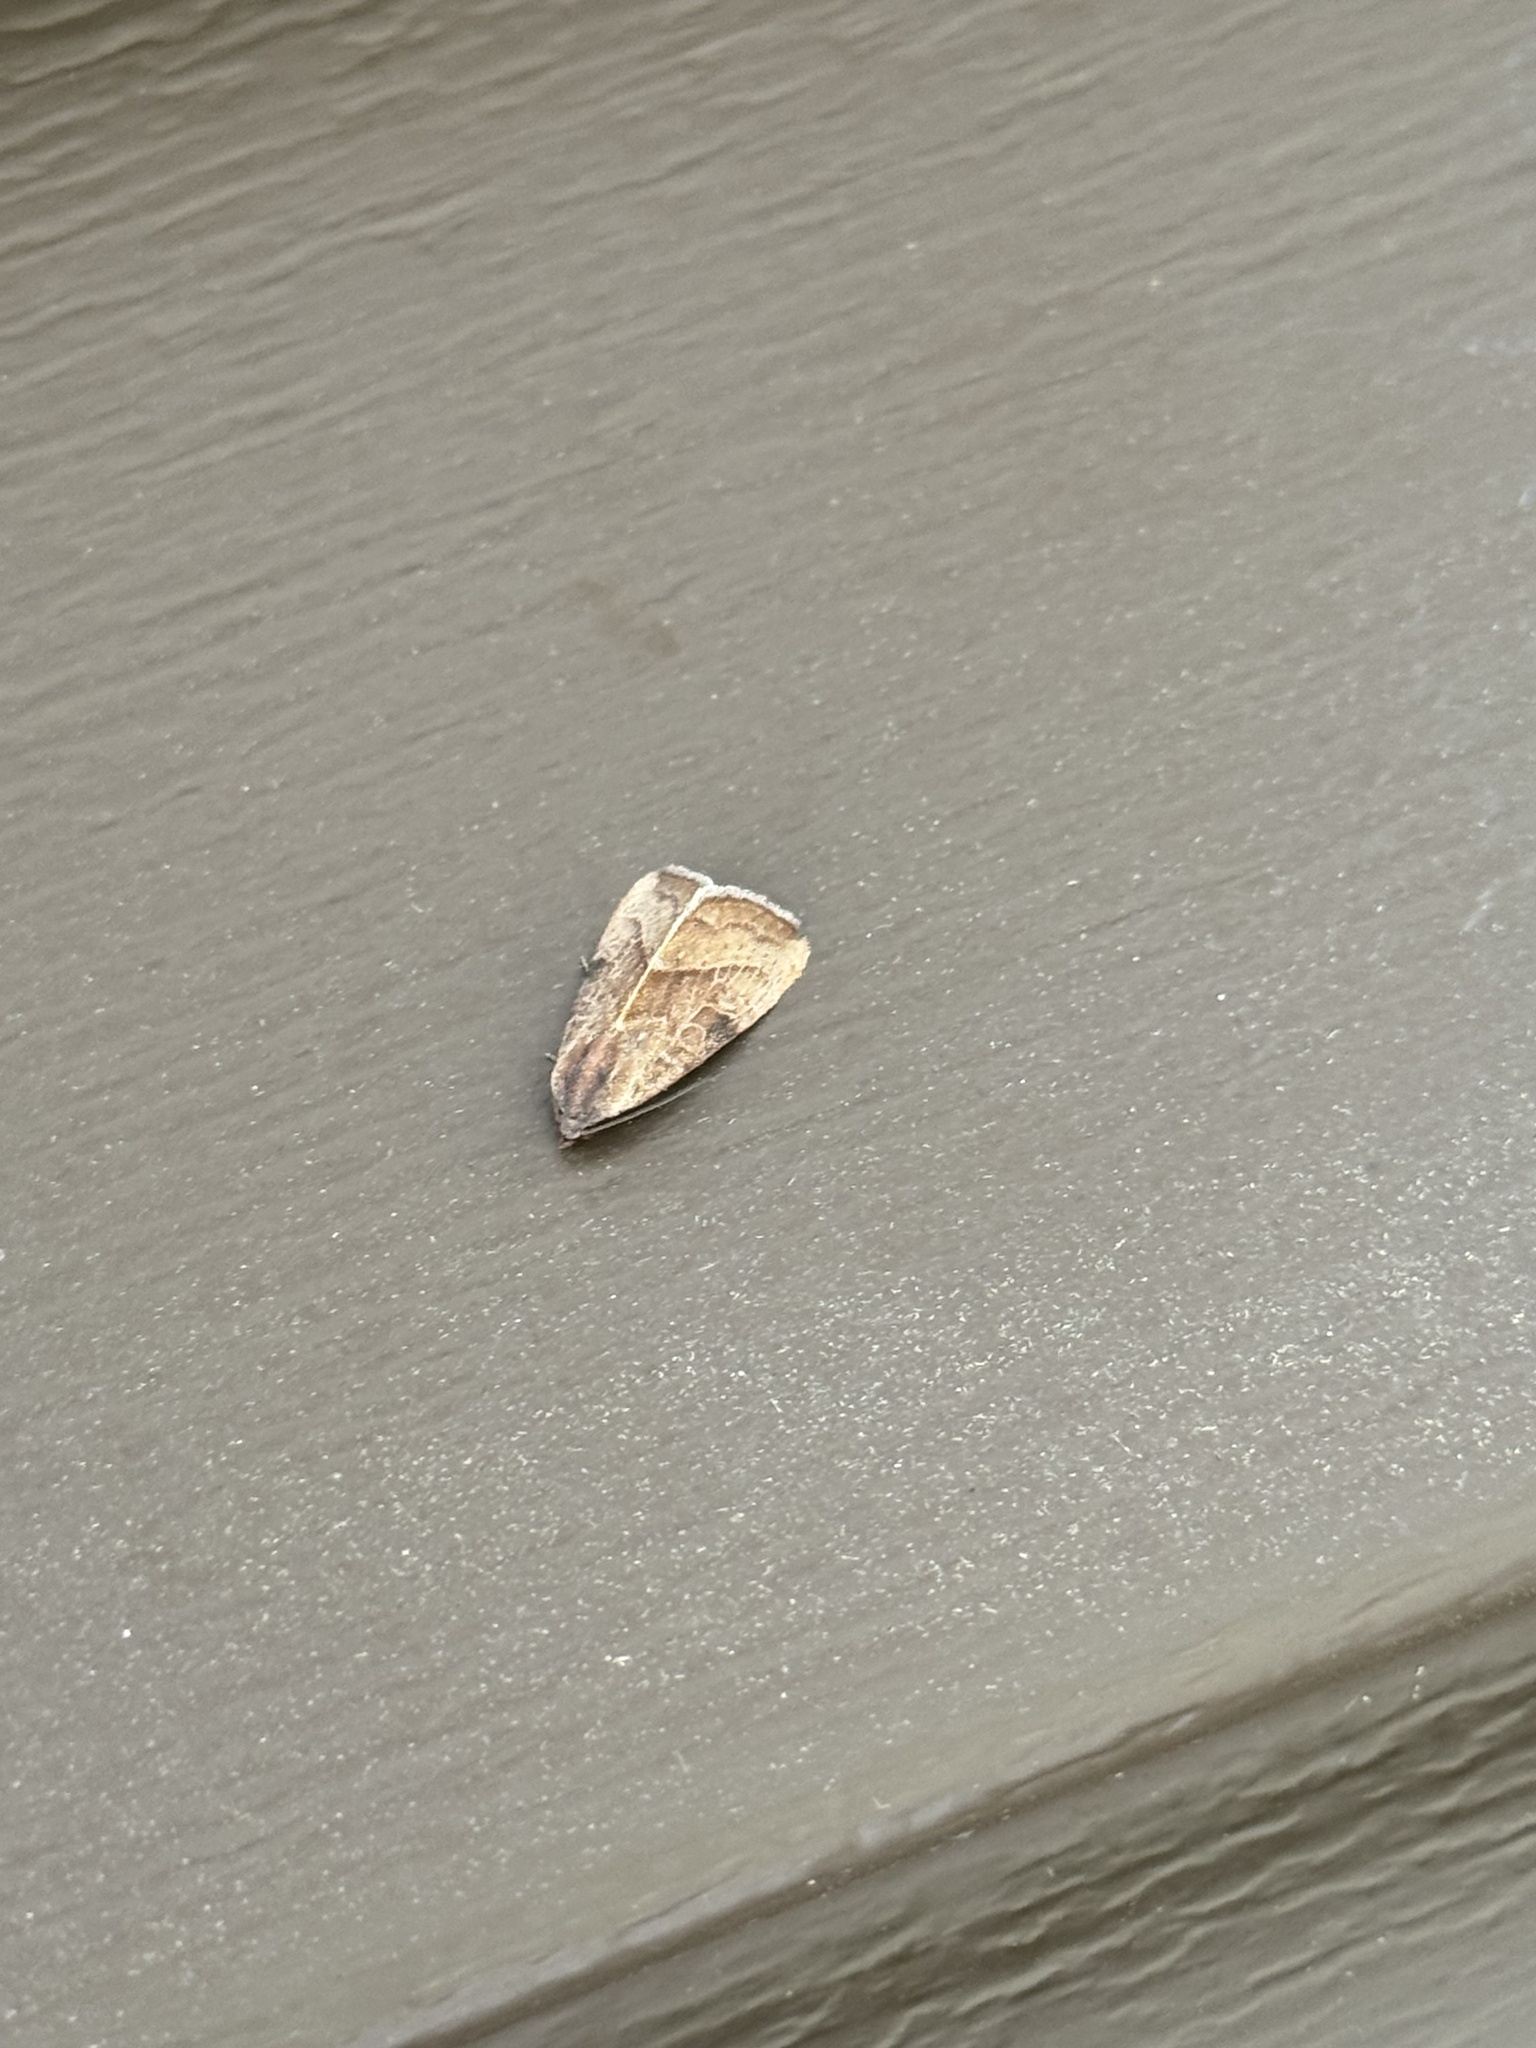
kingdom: Animalia
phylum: Arthropoda
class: Insecta
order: Lepidoptera
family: Noctuidae
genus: Galgula
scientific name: Galgula partita
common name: Wedgeling
